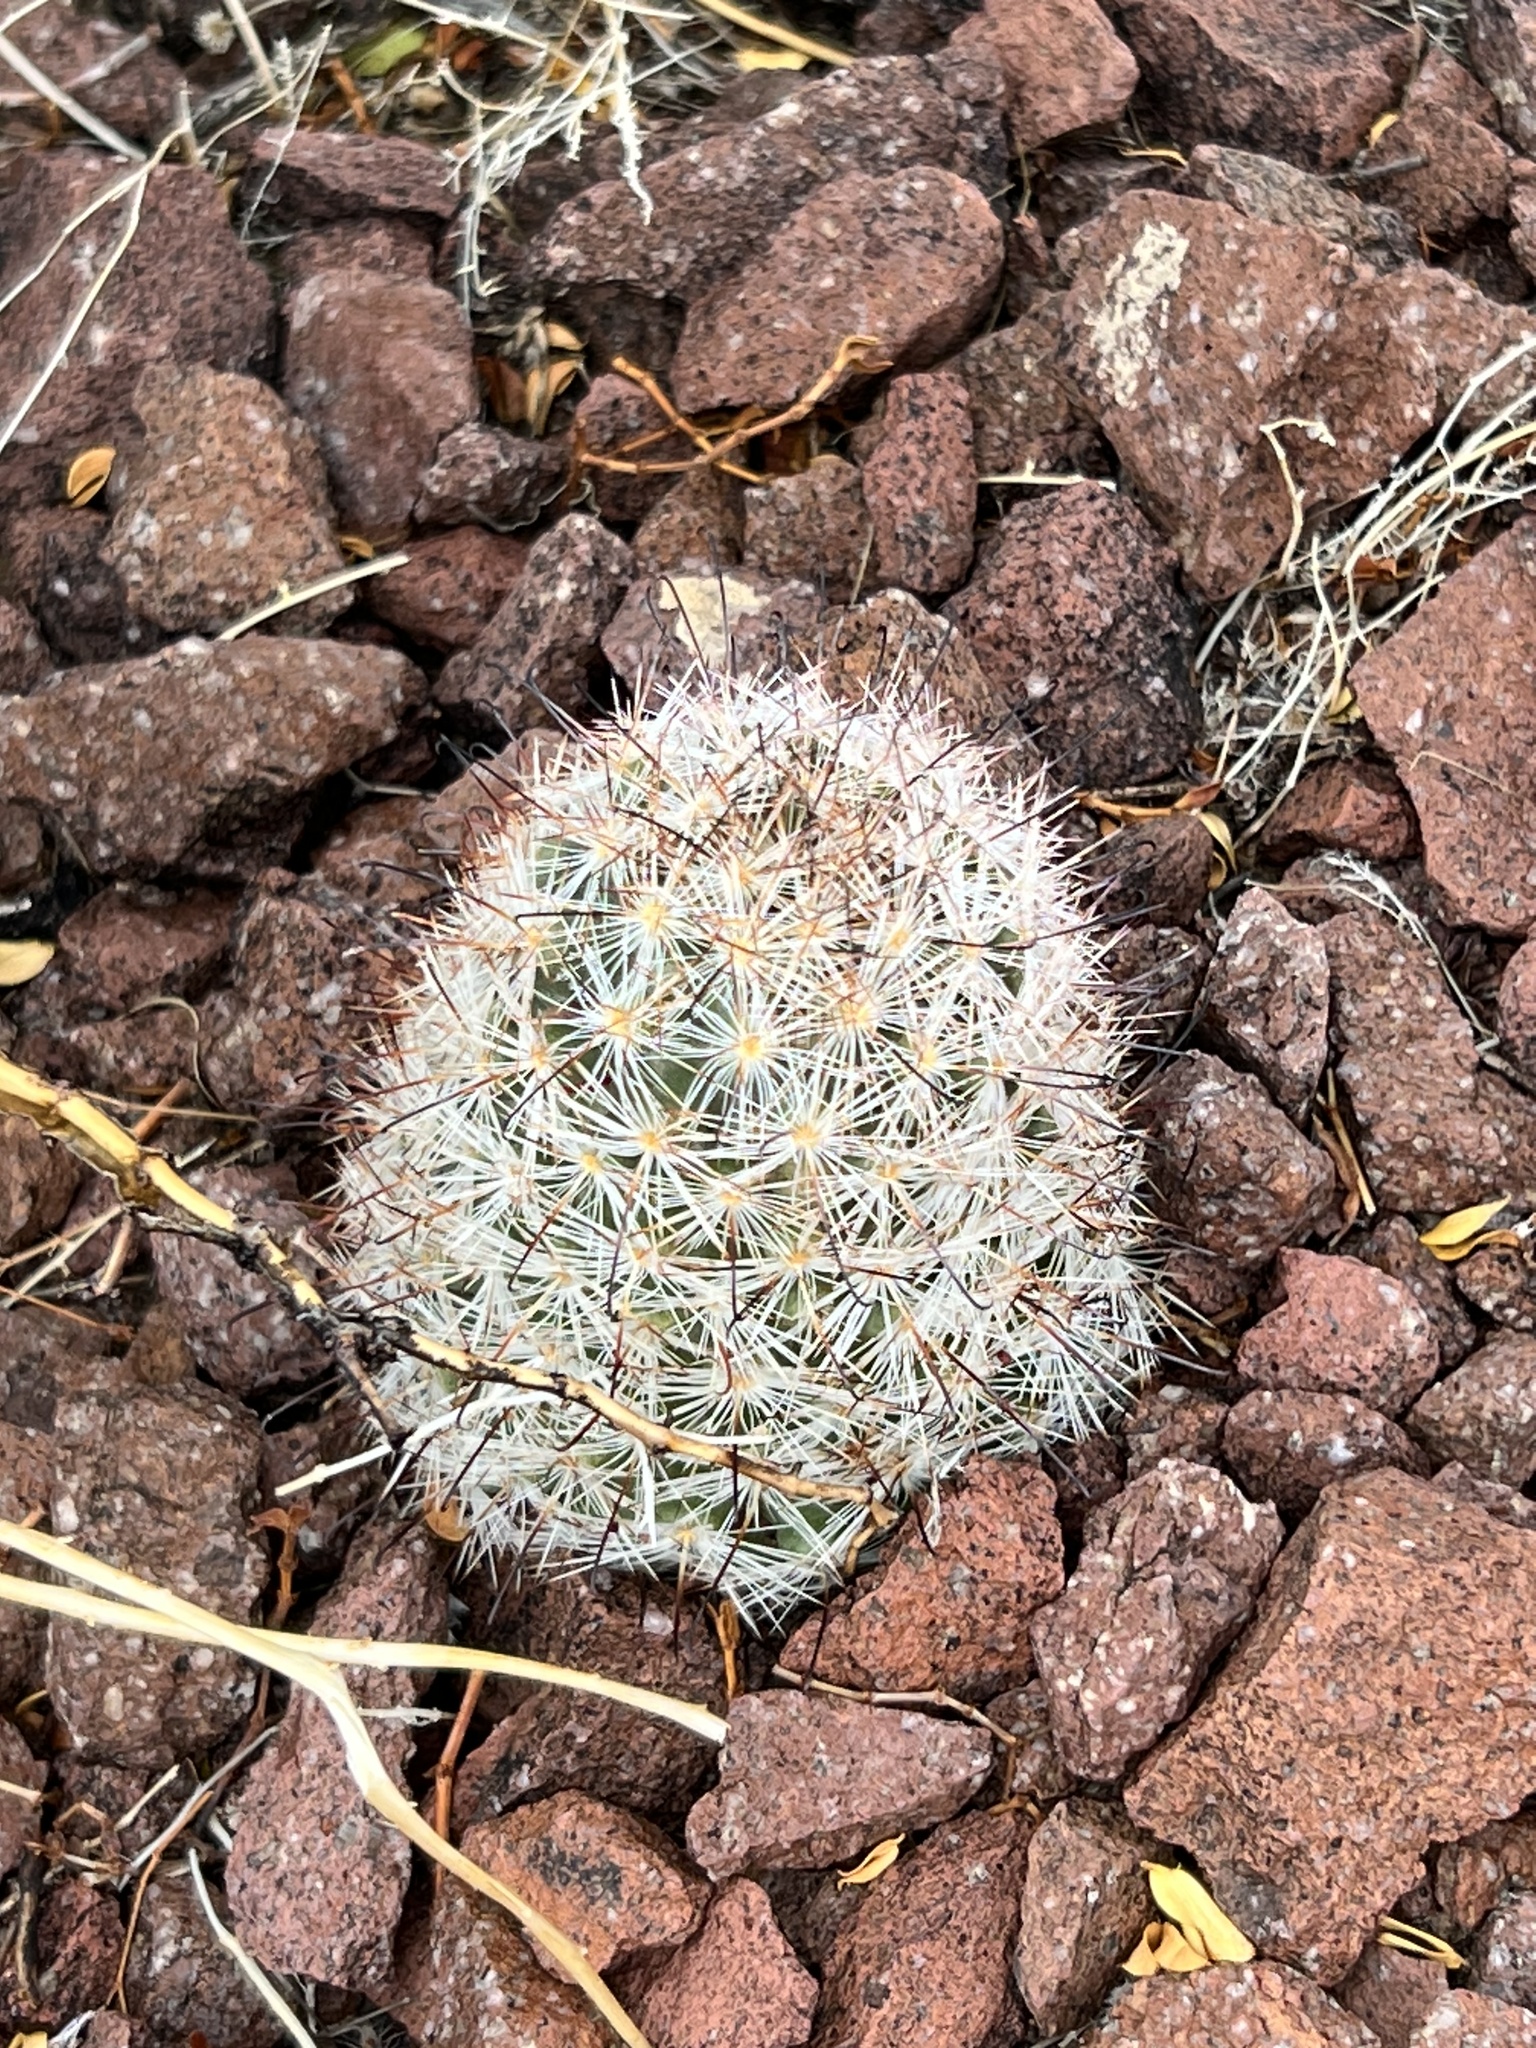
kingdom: Plantae
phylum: Tracheophyta
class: Magnoliopsida
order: Caryophyllales
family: Cactaceae
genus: Cochemiea
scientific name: Cochemiea tetrancistra
